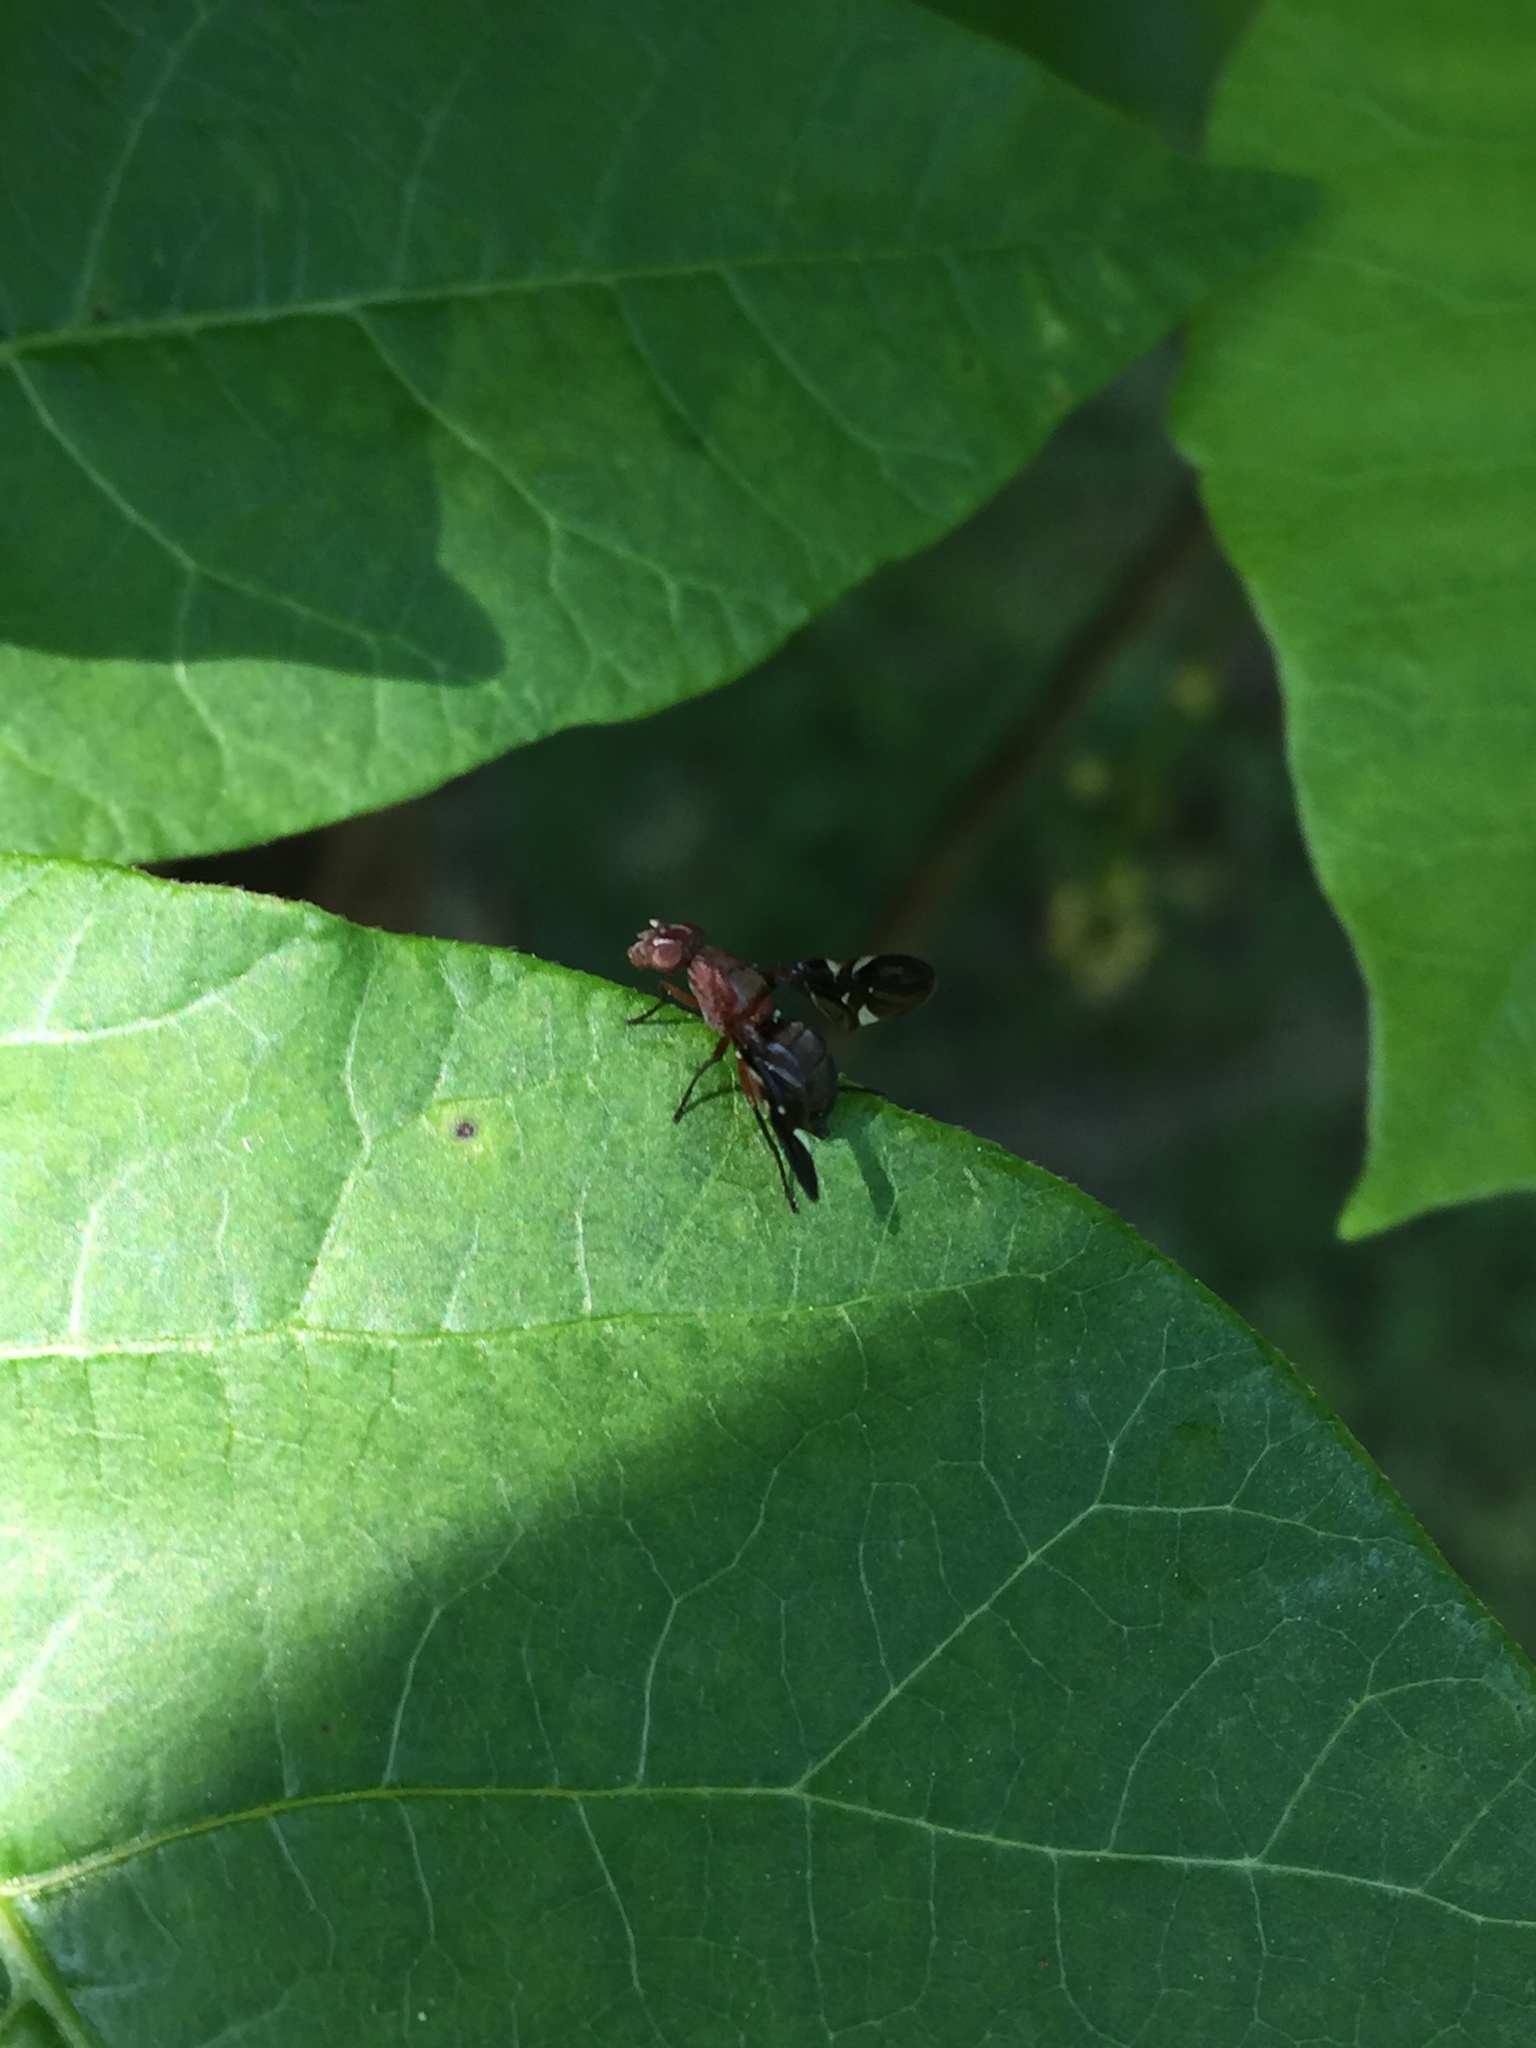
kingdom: Animalia
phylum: Arthropoda
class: Insecta
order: Diptera
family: Ulidiidae
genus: Delphinia
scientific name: Delphinia picta
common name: Common picture-winged fly
